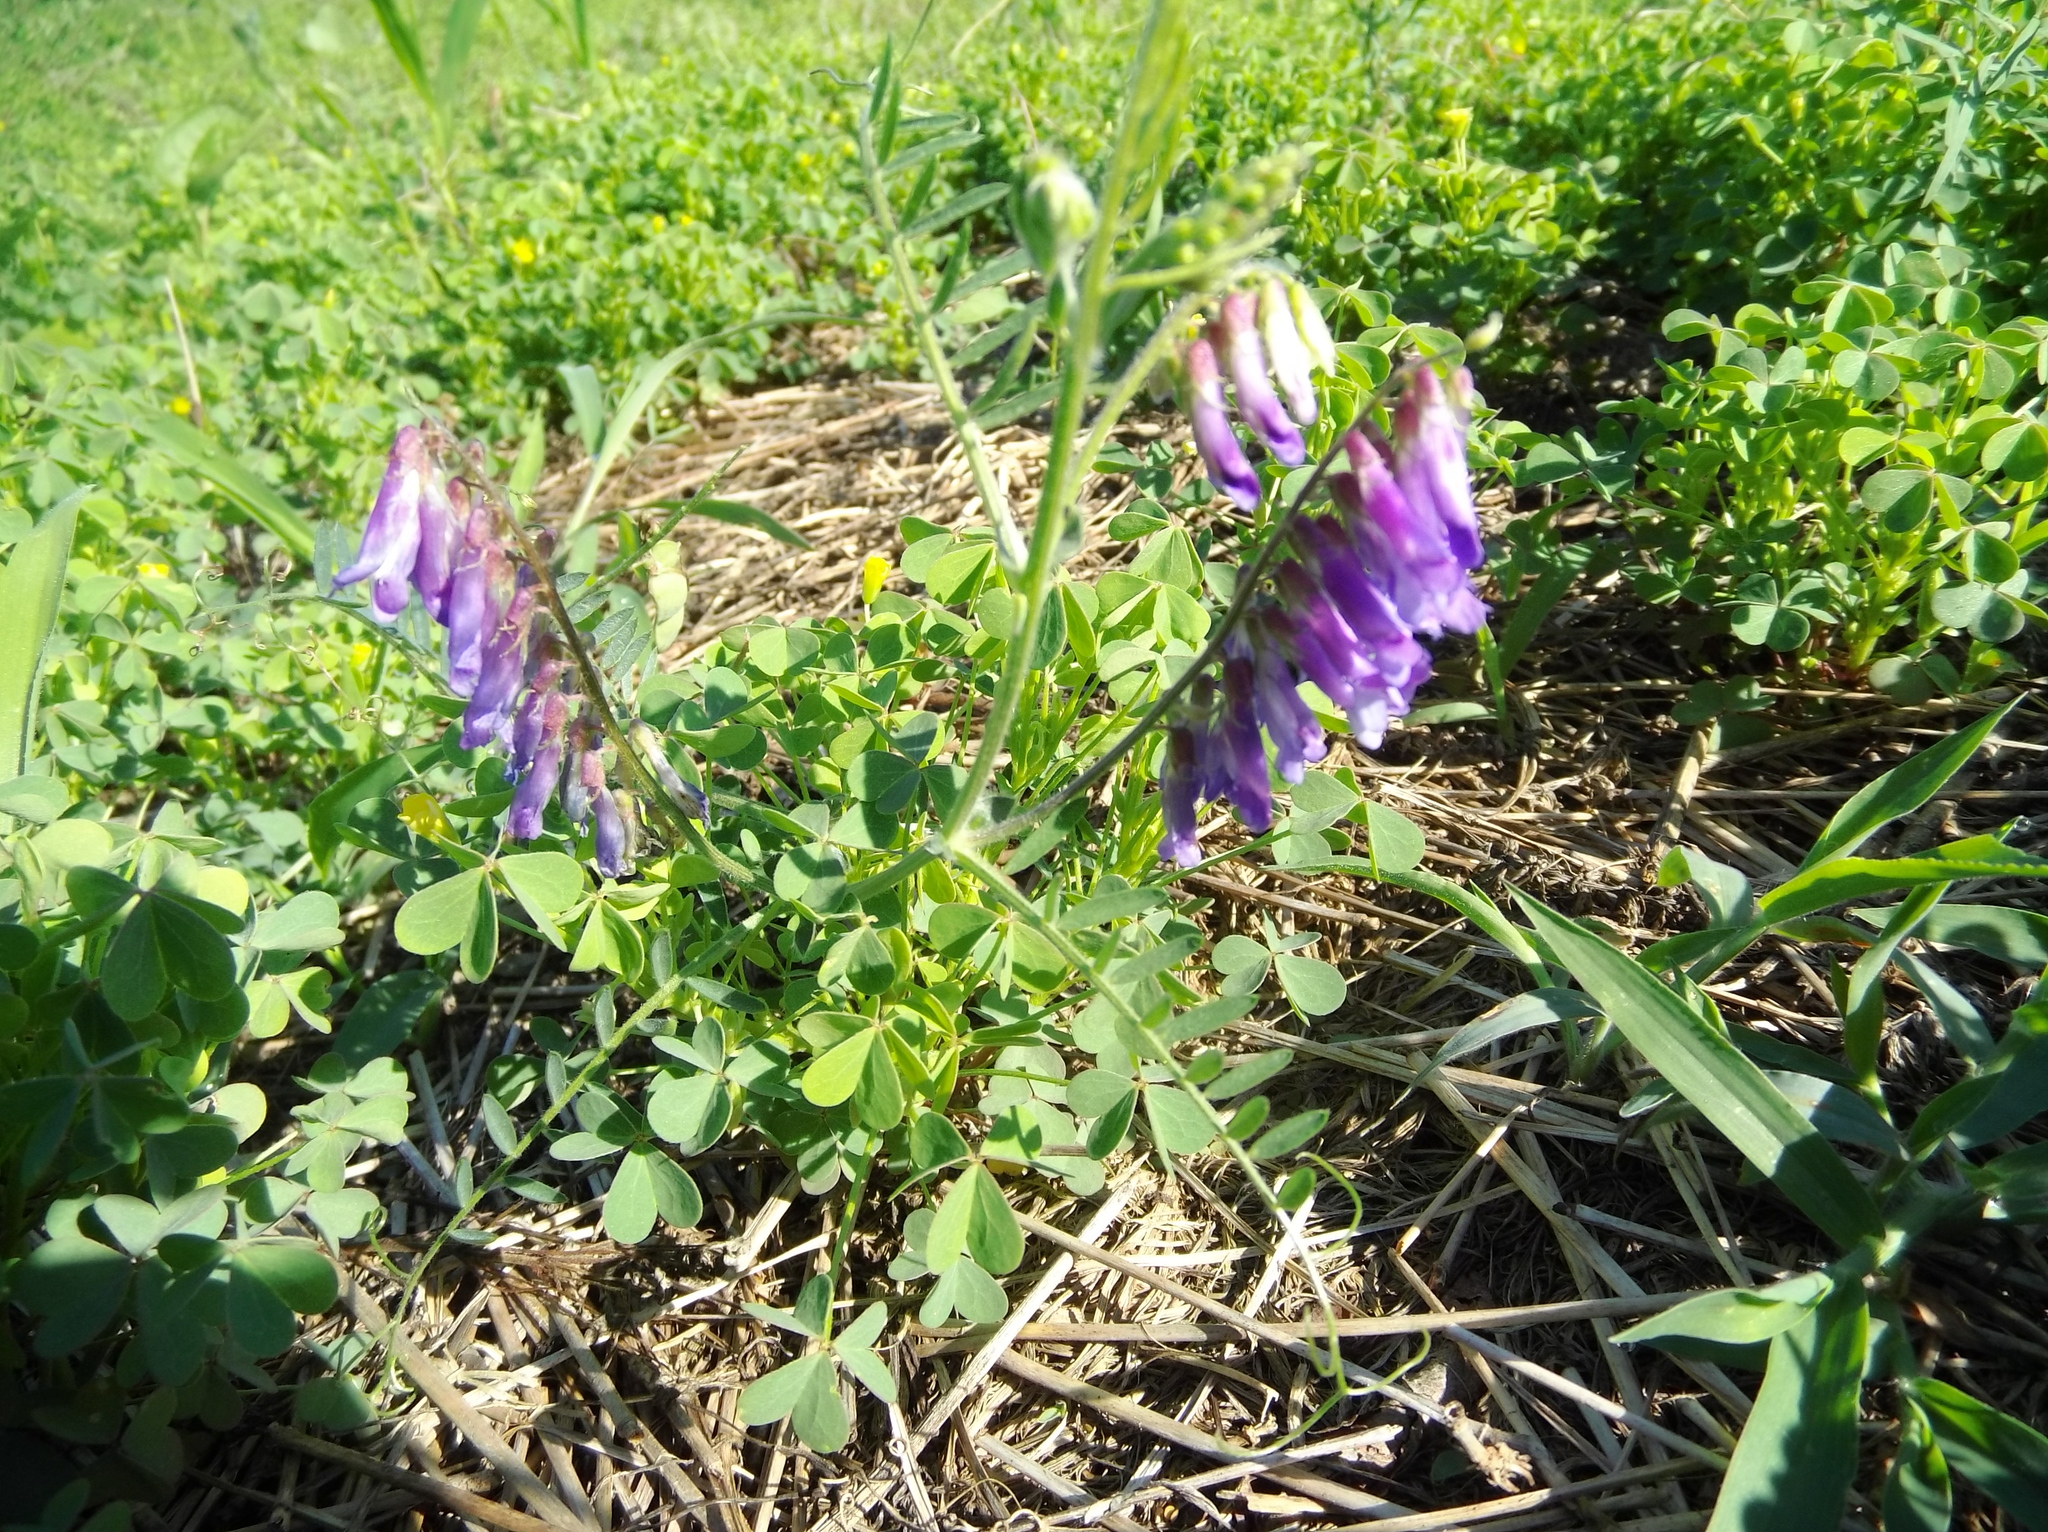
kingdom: Plantae
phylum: Tracheophyta
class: Magnoliopsida
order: Fabales
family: Fabaceae
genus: Vicia
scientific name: Vicia villosa
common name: Fodder vetch
